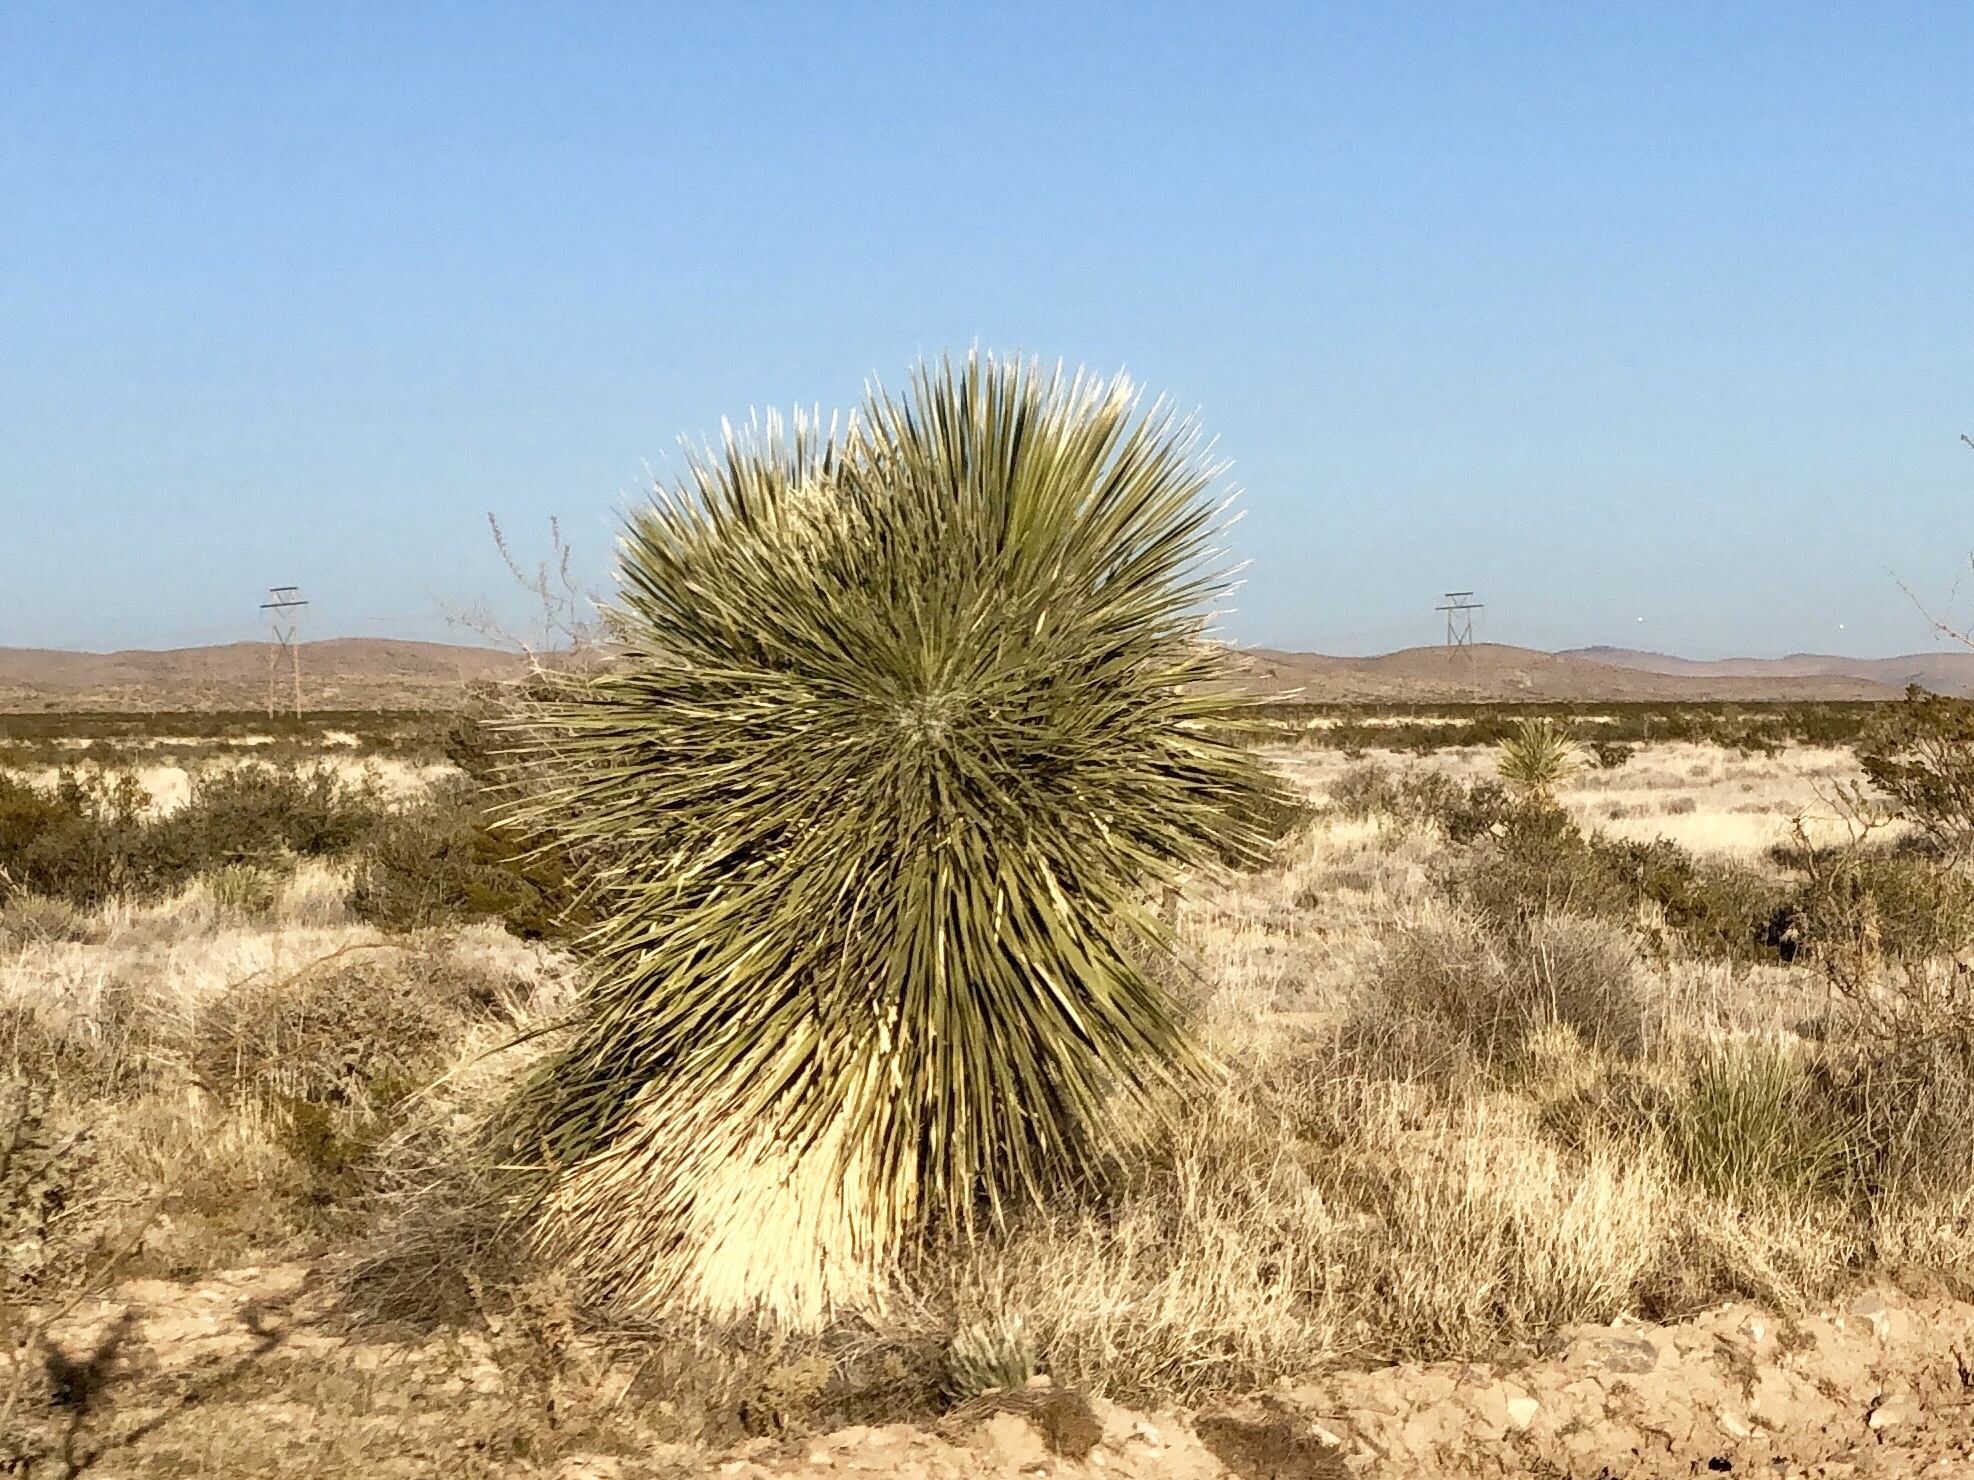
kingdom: Plantae
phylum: Tracheophyta
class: Liliopsida
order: Asparagales
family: Asparagaceae
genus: Yucca
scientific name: Yucca elata
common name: Palmella
